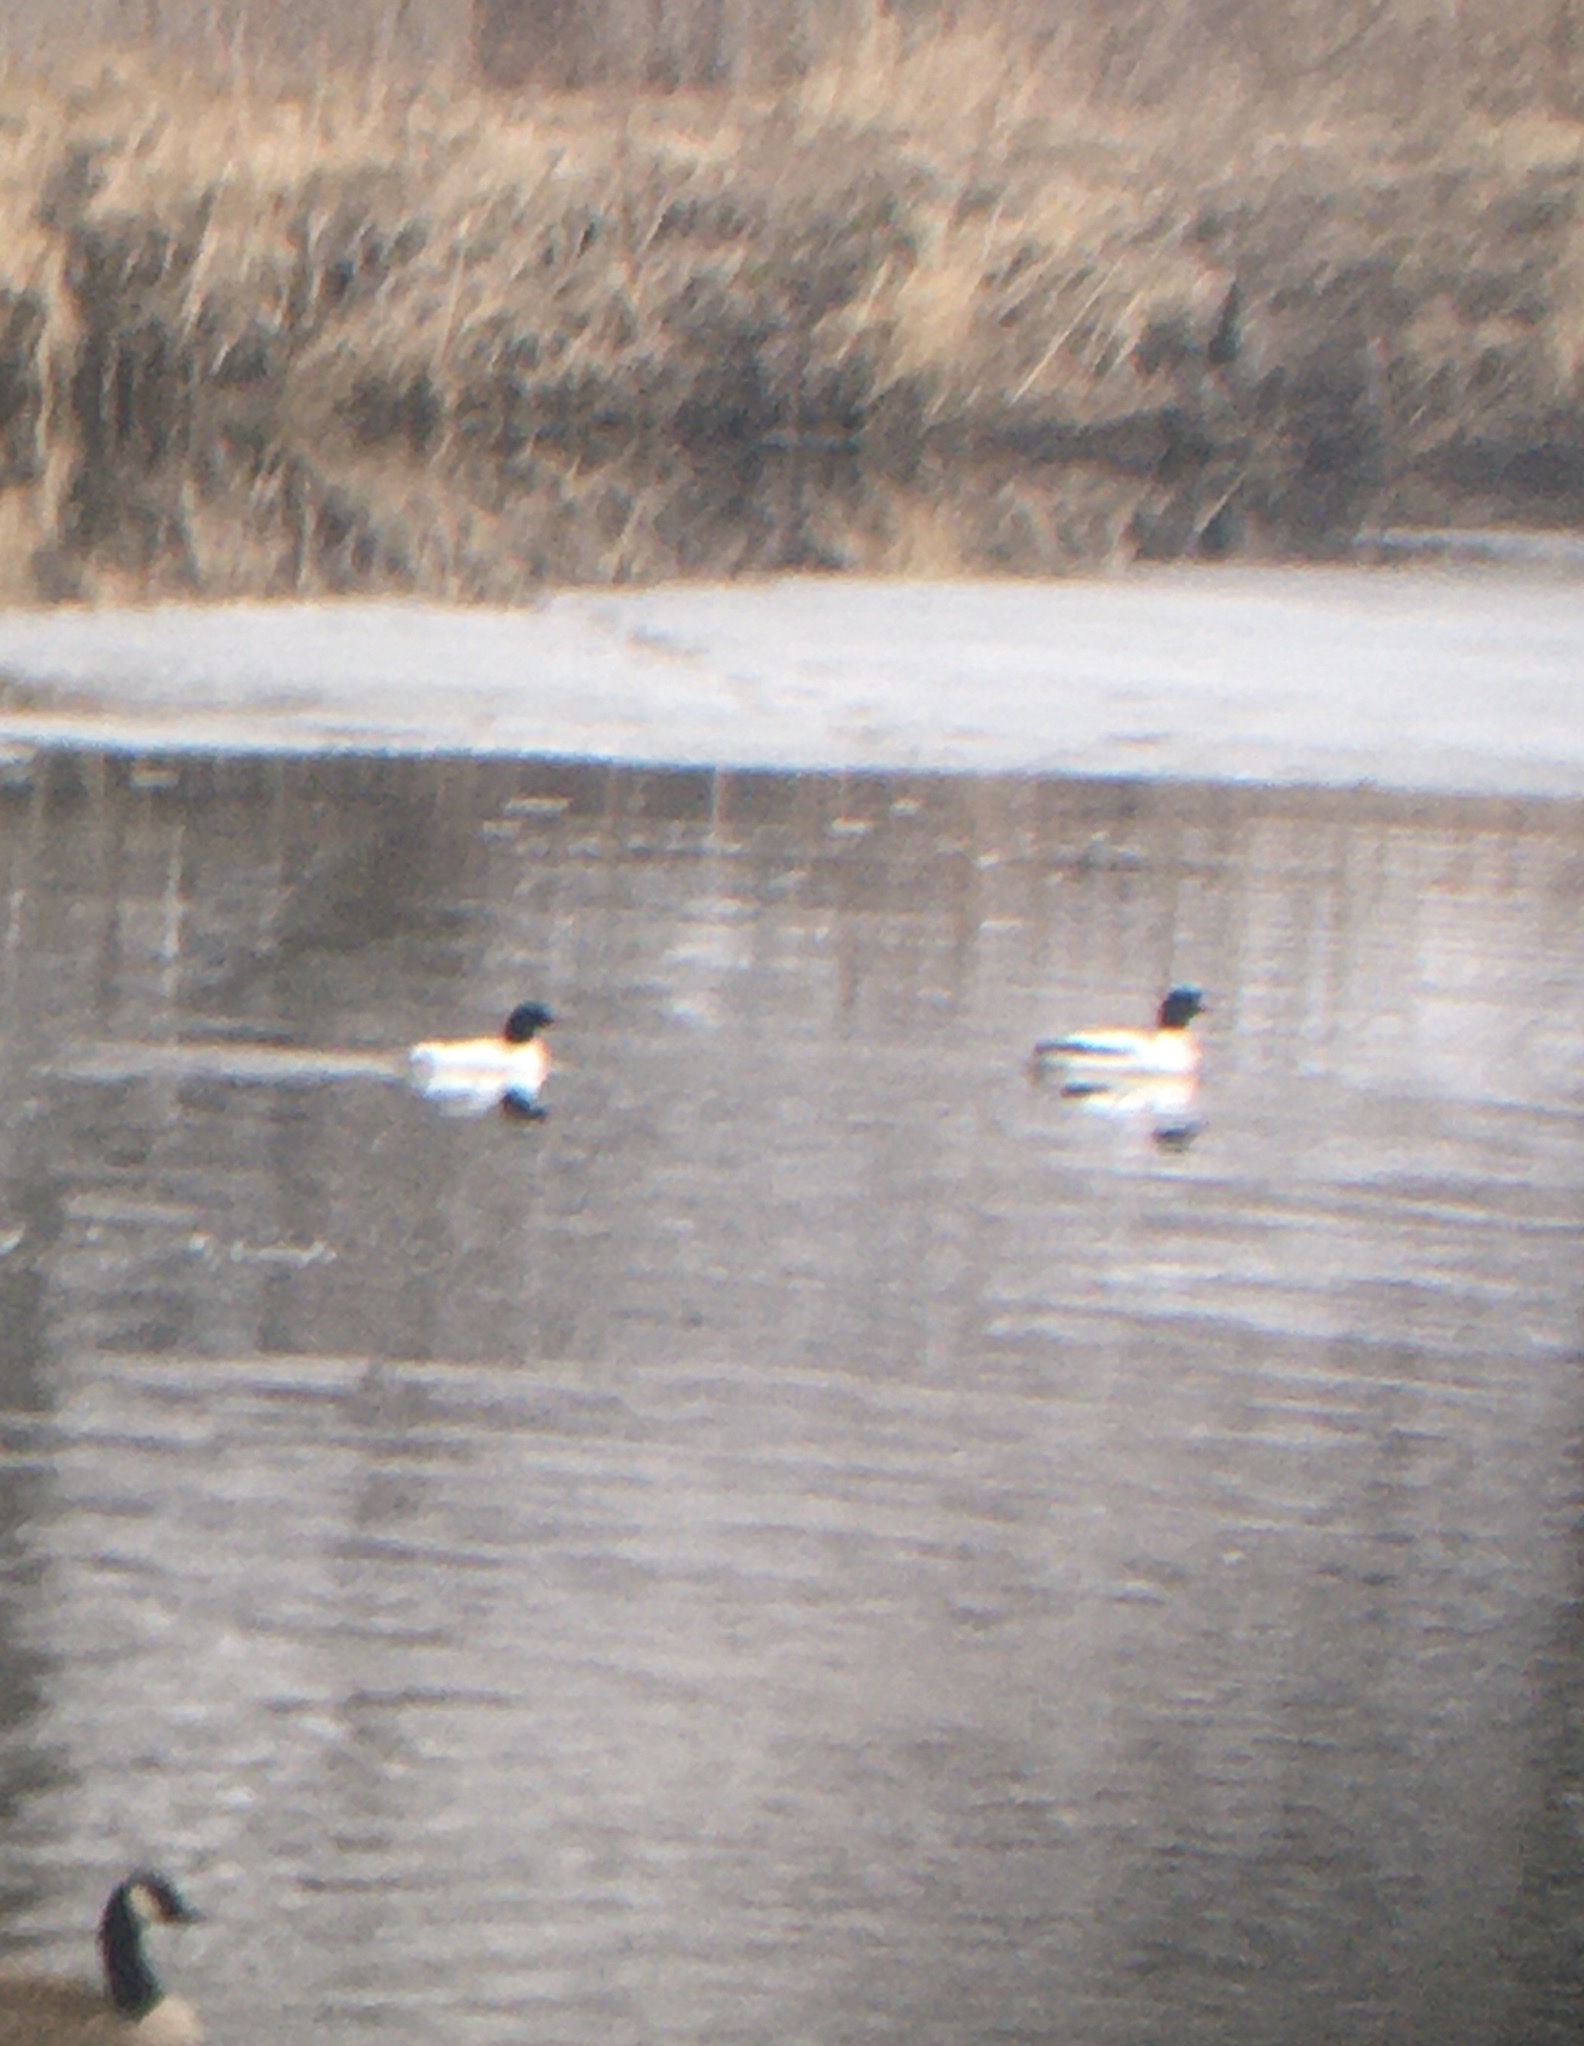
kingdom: Animalia
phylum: Chordata
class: Aves
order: Anseriformes
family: Anatidae
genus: Mergus
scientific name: Mergus merganser
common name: Common merganser
